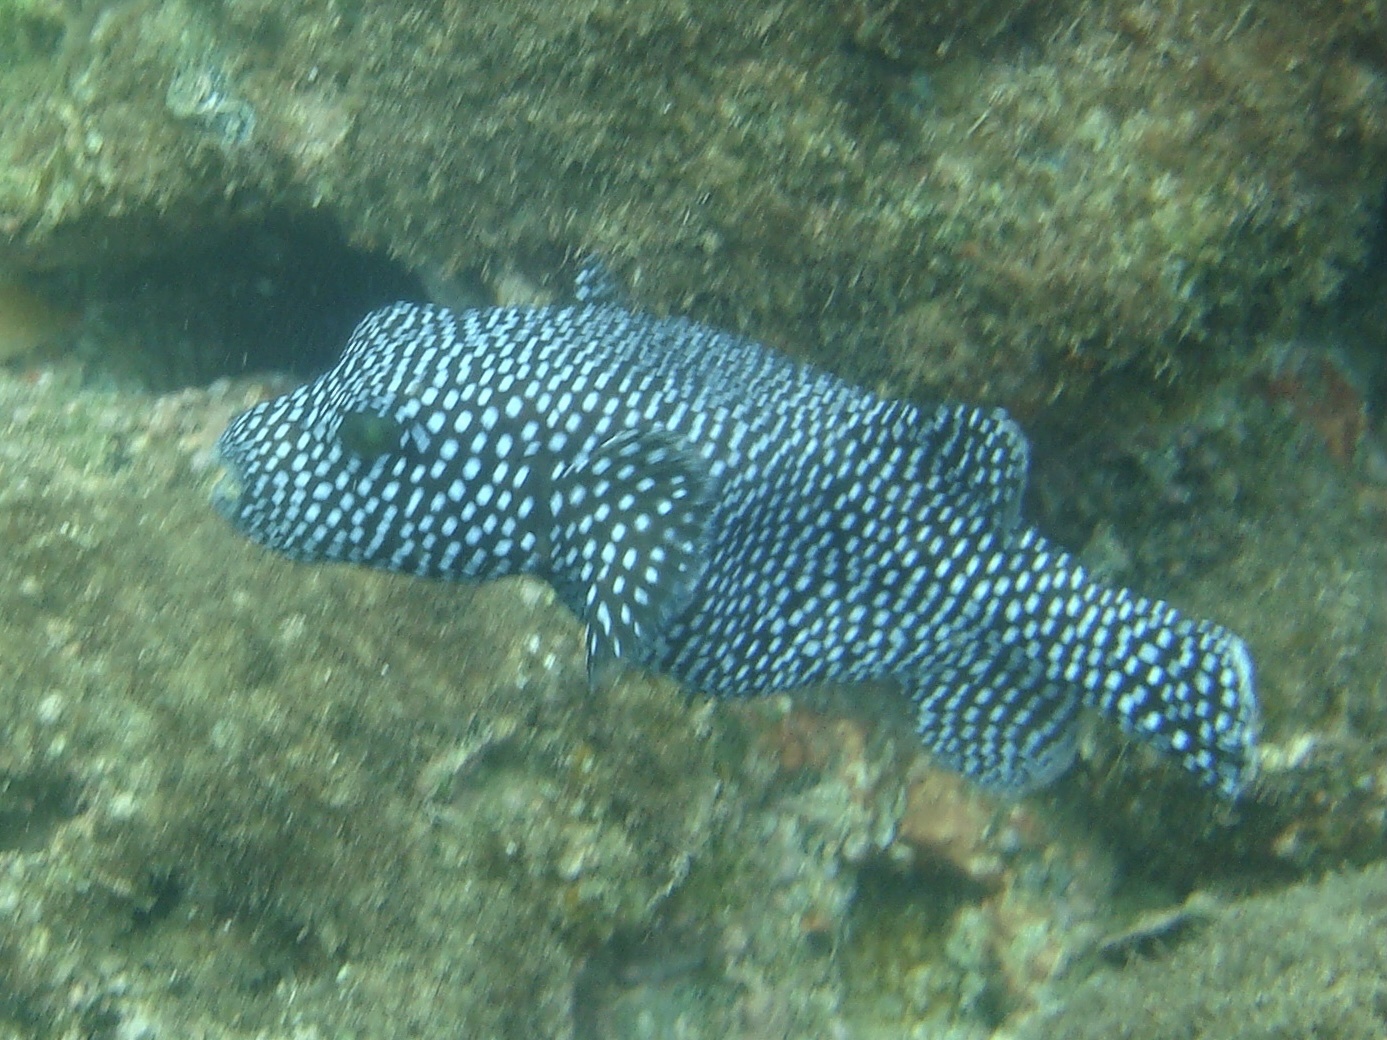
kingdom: Animalia
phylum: Chordata
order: Tetraodontiformes
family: Tetraodontidae
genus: Arothron
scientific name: Arothron meleagris
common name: Guinea-fowl pufferfish
